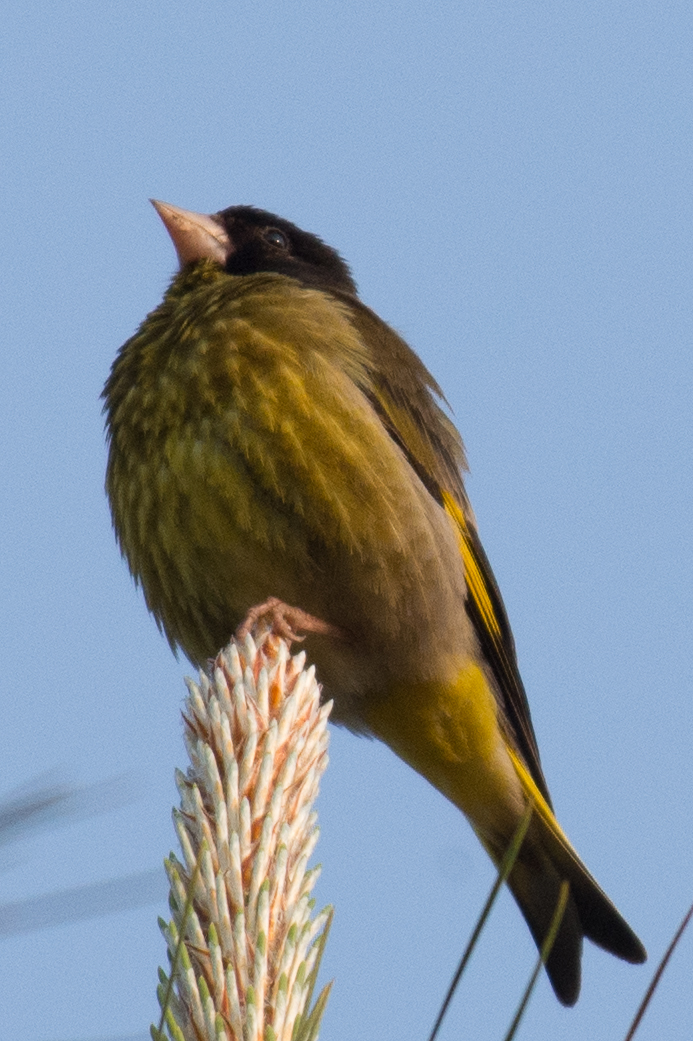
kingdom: Animalia
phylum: Chordata
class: Aves
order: Passeriformes
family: Fringillidae
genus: Chloris
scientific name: Chloris ambigua
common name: Black-headed greenfinch
